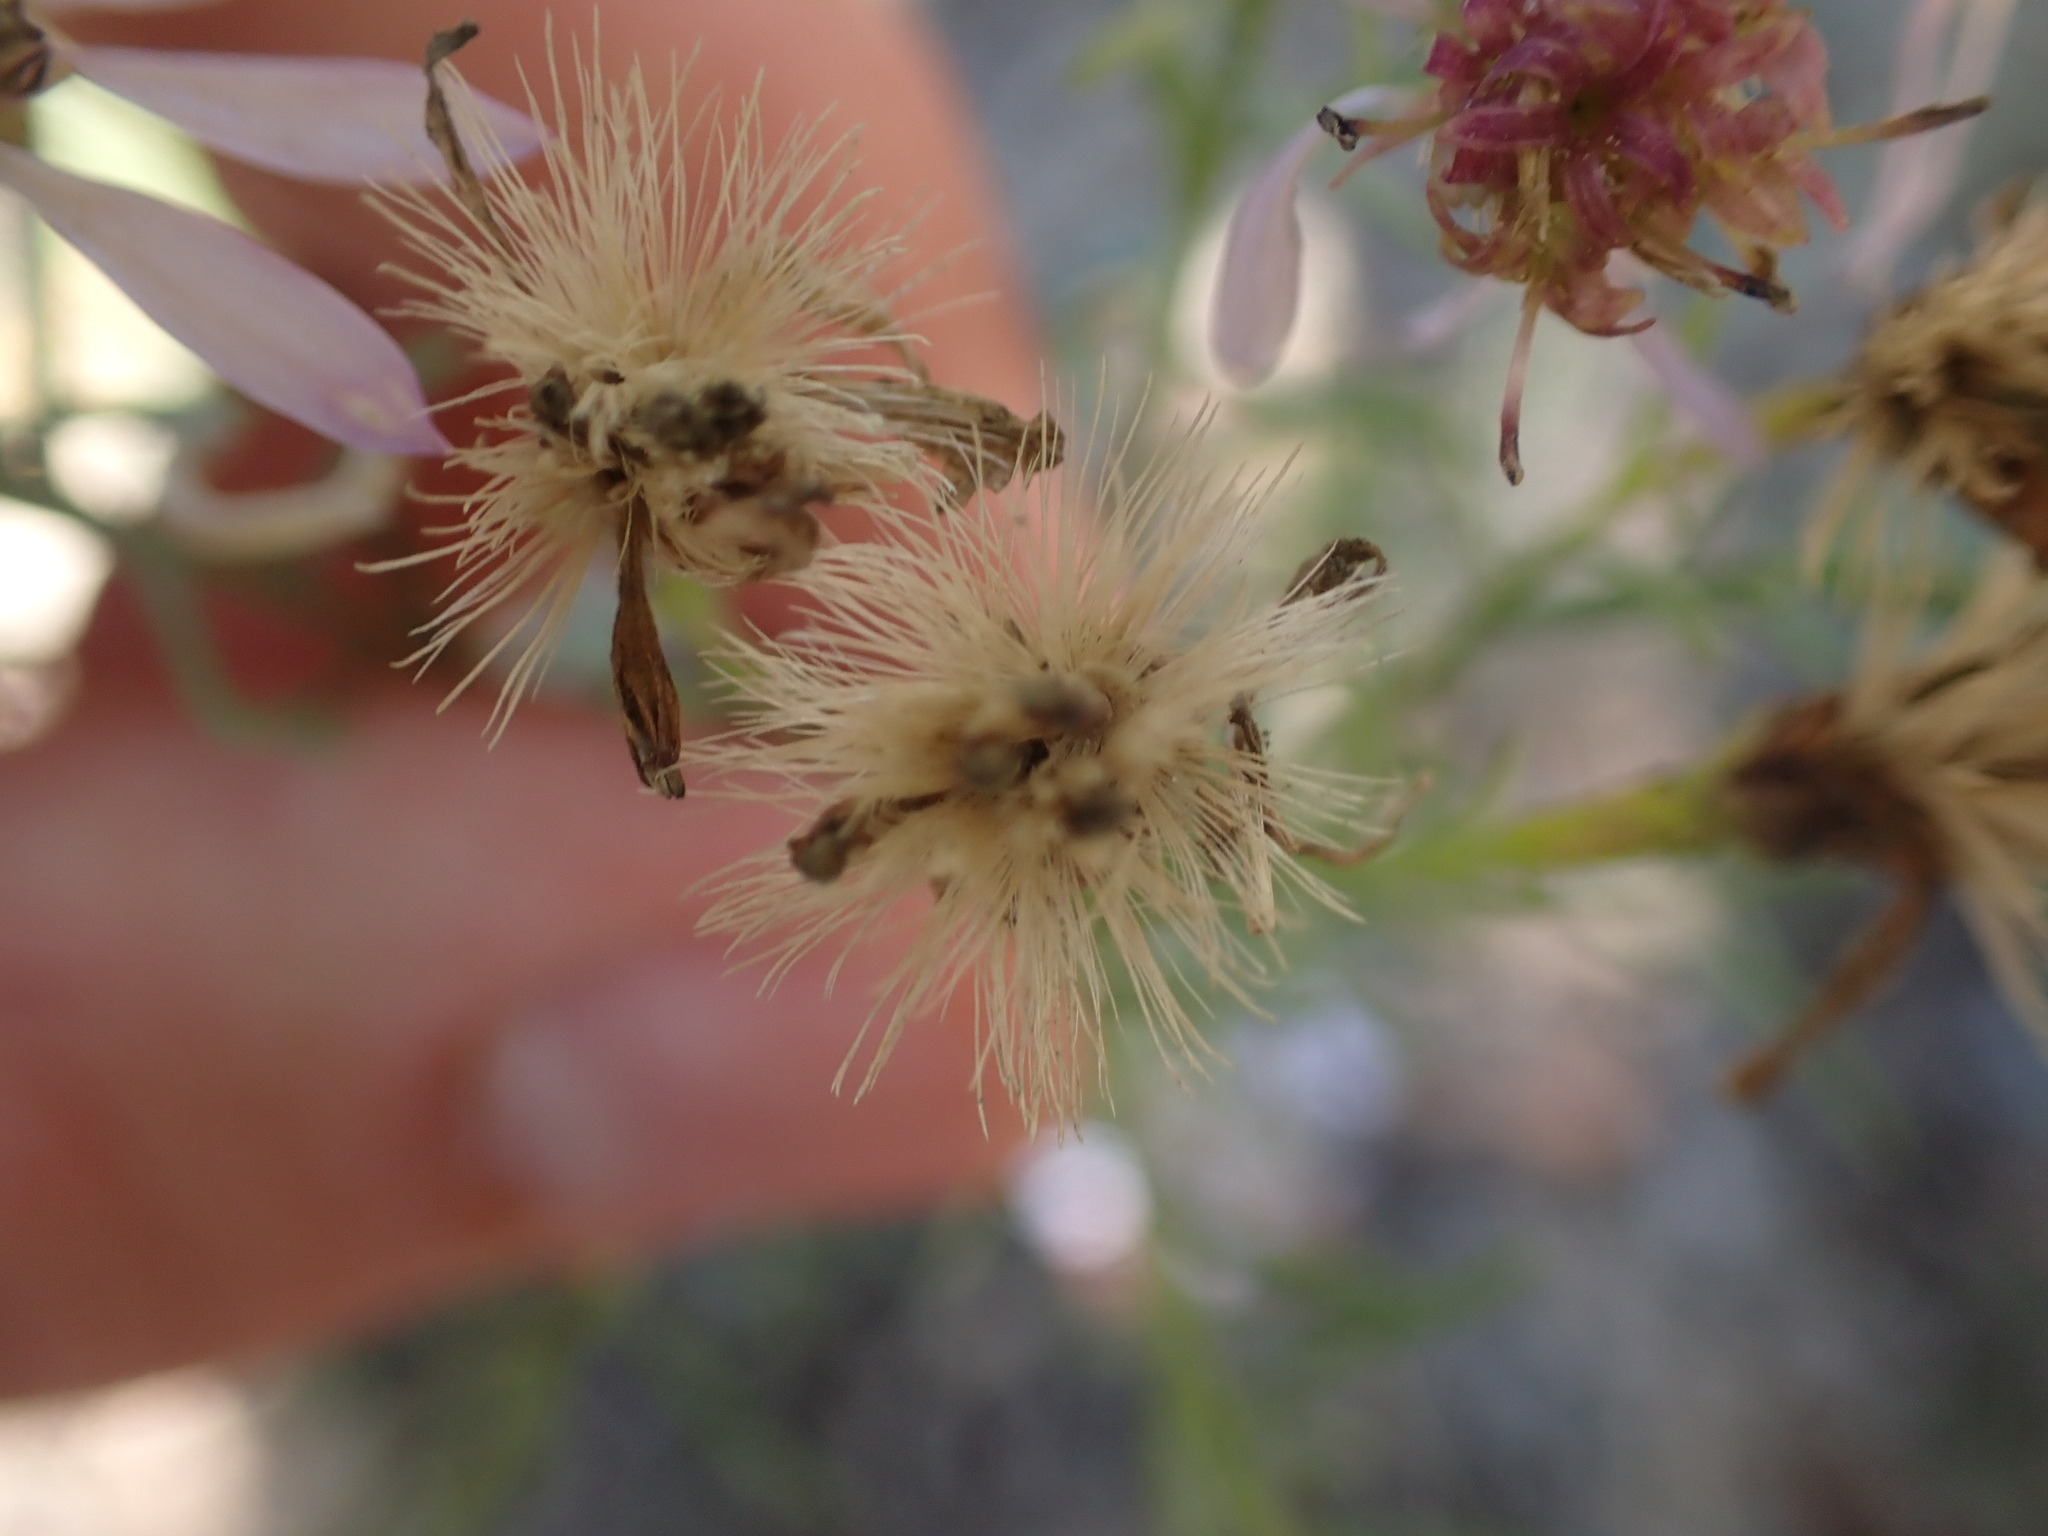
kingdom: Plantae
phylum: Tracheophyta
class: Magnoliopsida
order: Asterales
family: Asteraceae
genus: Galatella
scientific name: Galatella sedifolia
